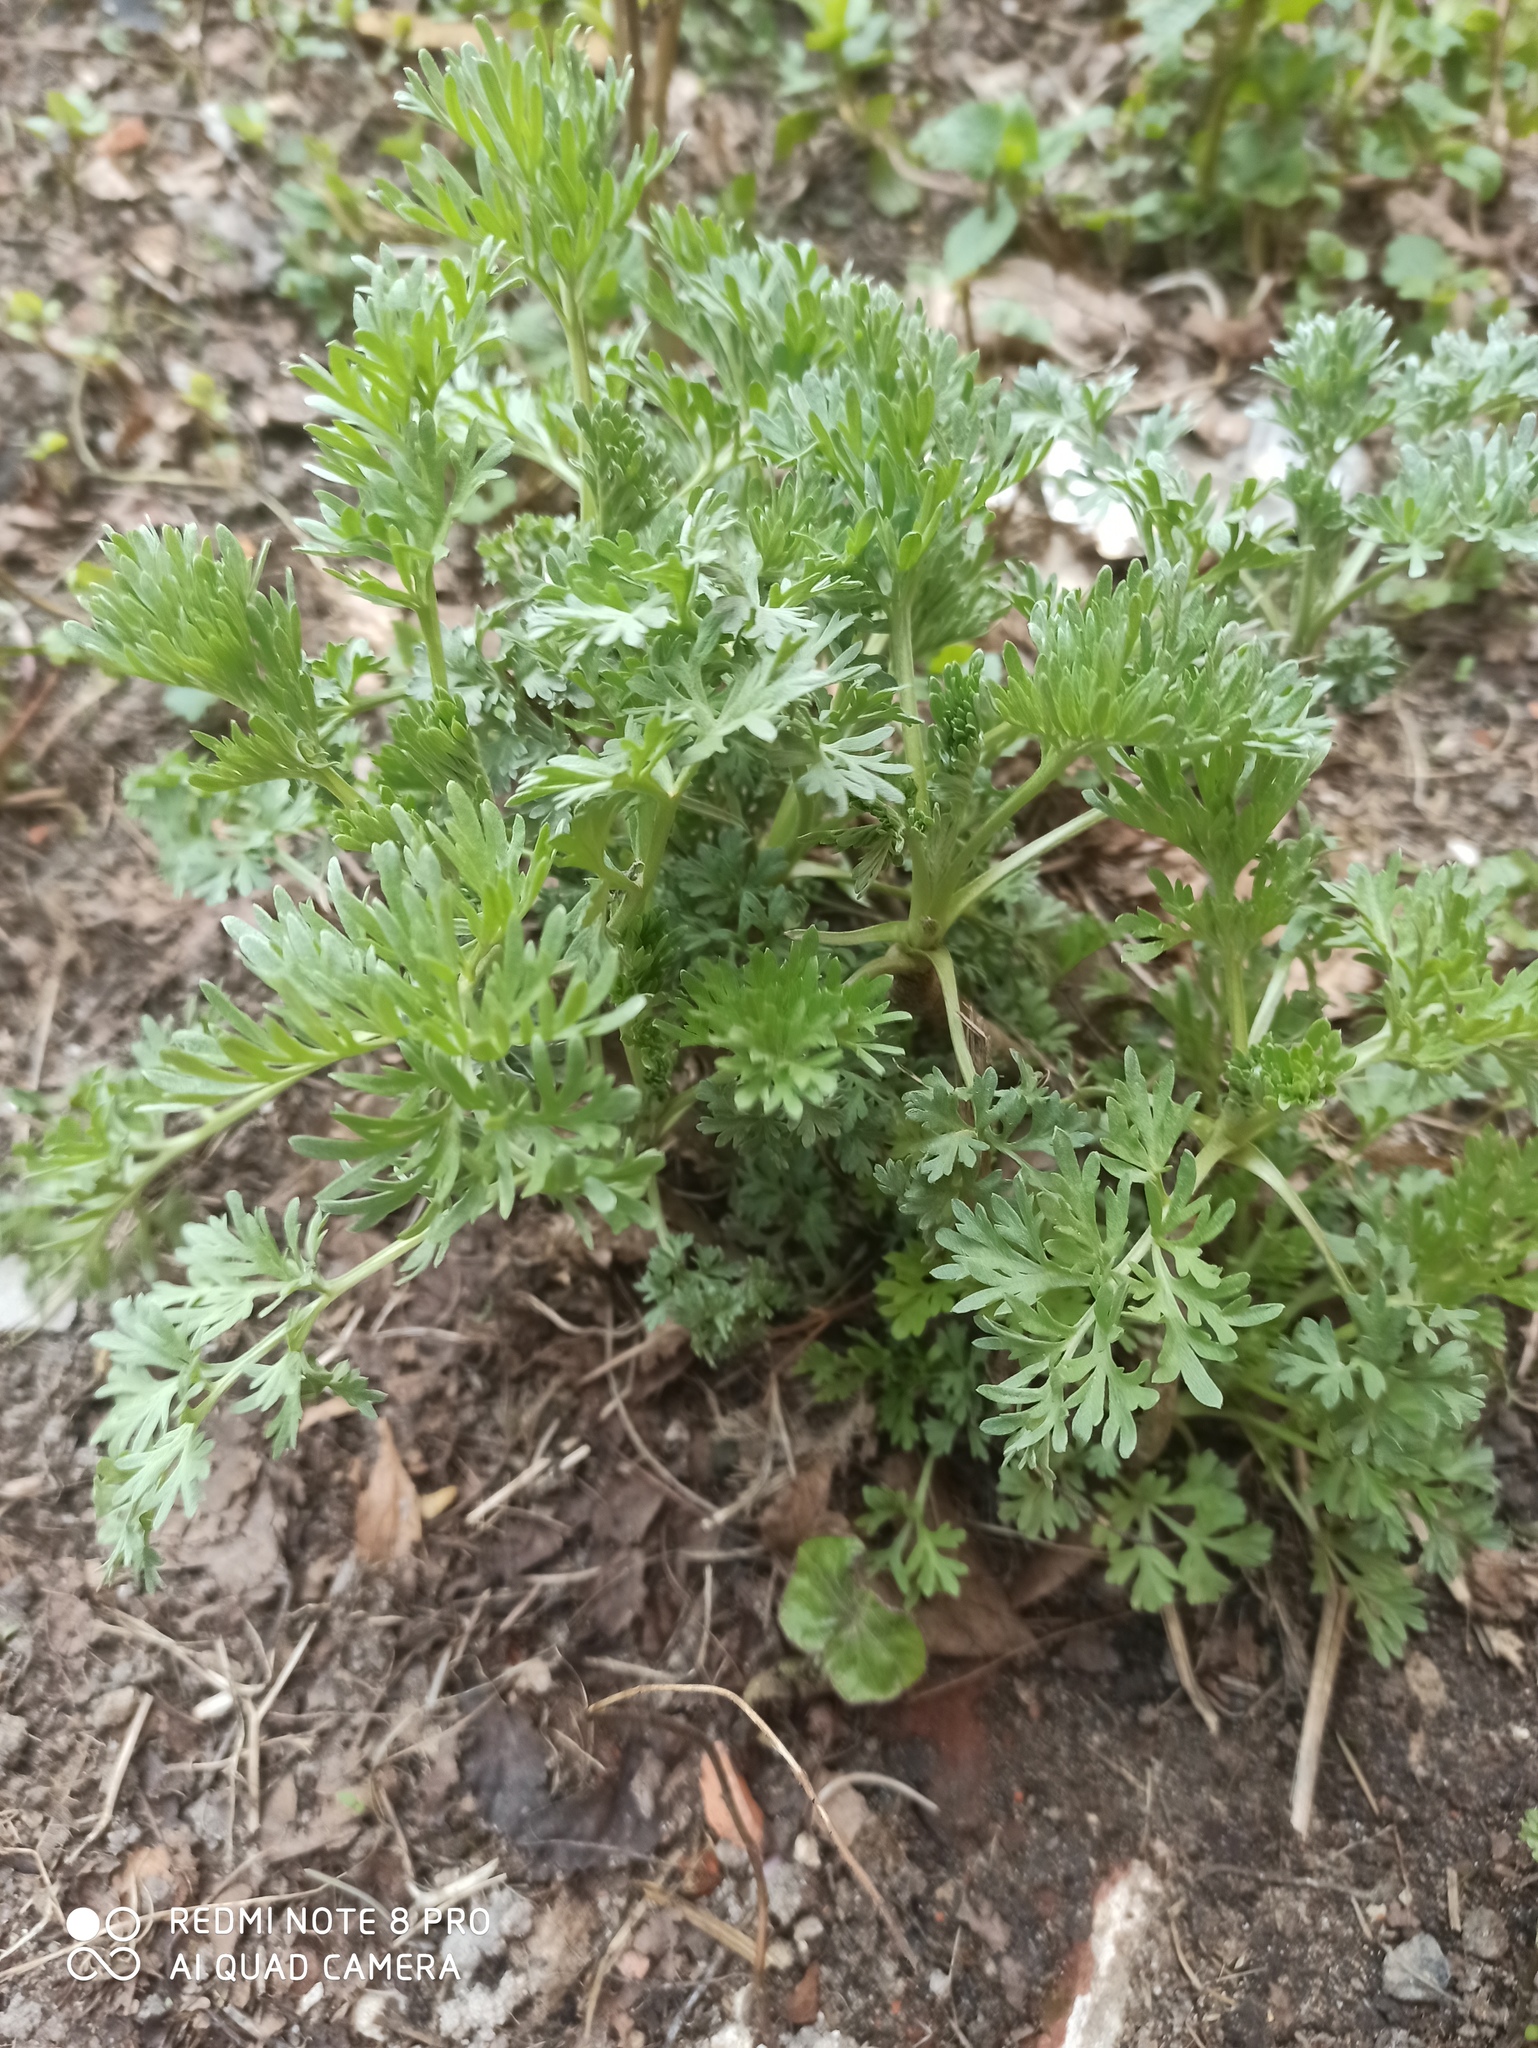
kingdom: Plantae
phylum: Tracheophyta
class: Magnoliopsida
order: Asterales
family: Asteraceae
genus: Artemisia
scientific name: Artemisia absinthium
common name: Wormwood
